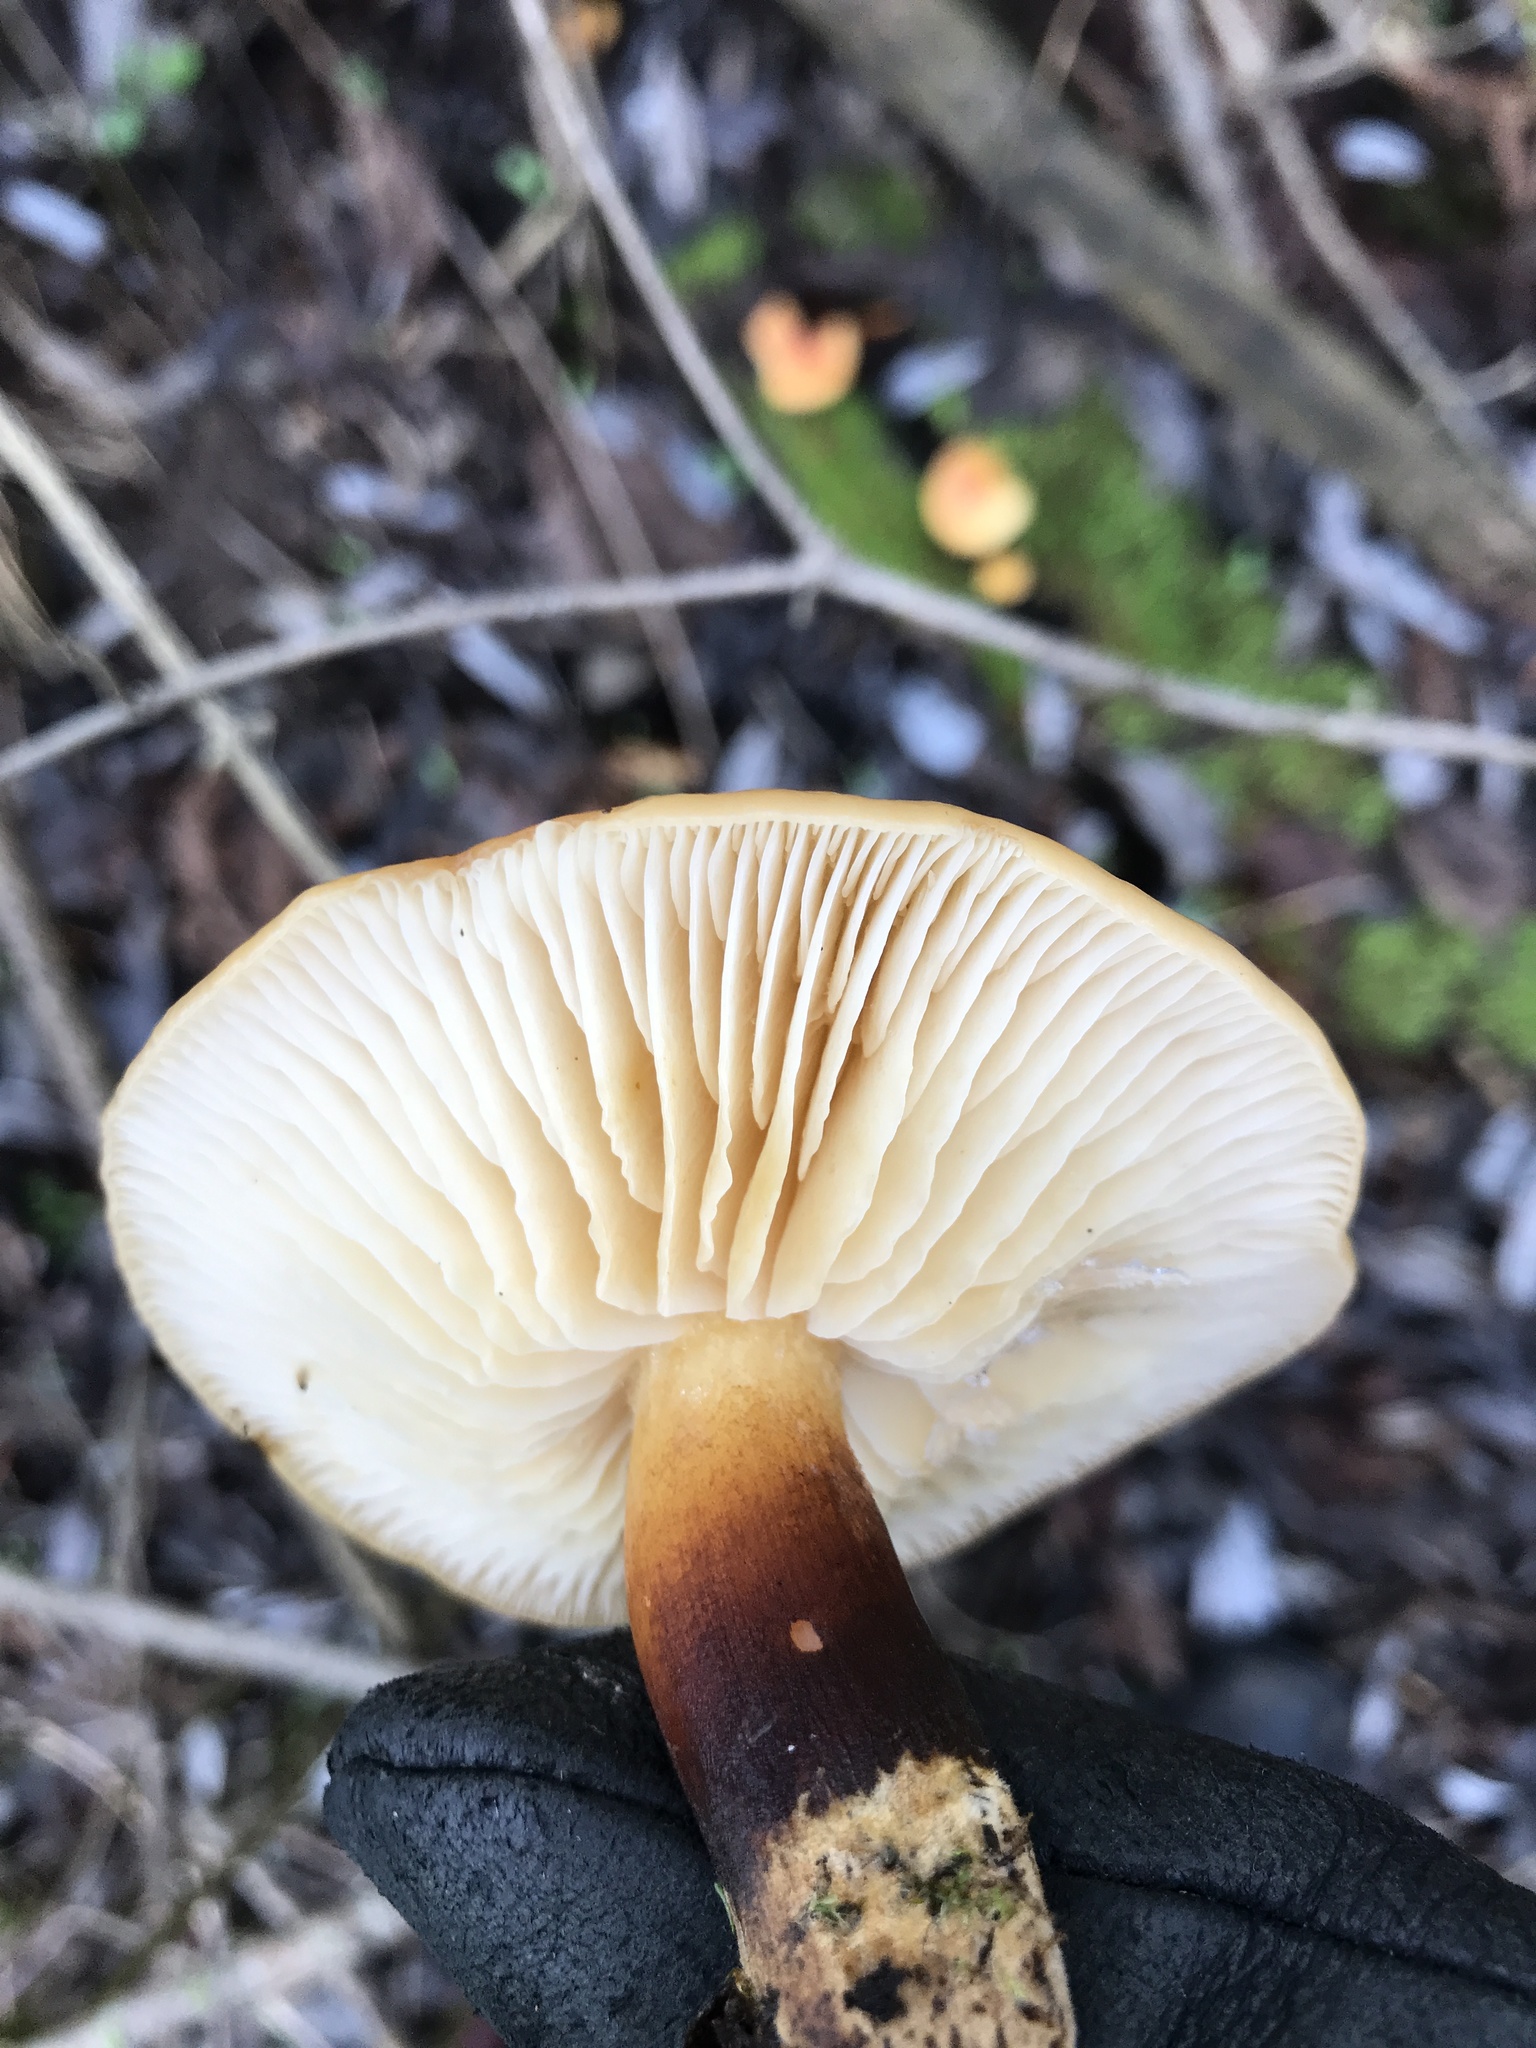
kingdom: Fungi
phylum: Basidiomycota
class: Agaricomycetes
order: Agaricales
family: Physalacriaceae
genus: Flammulina
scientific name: Flammulina
